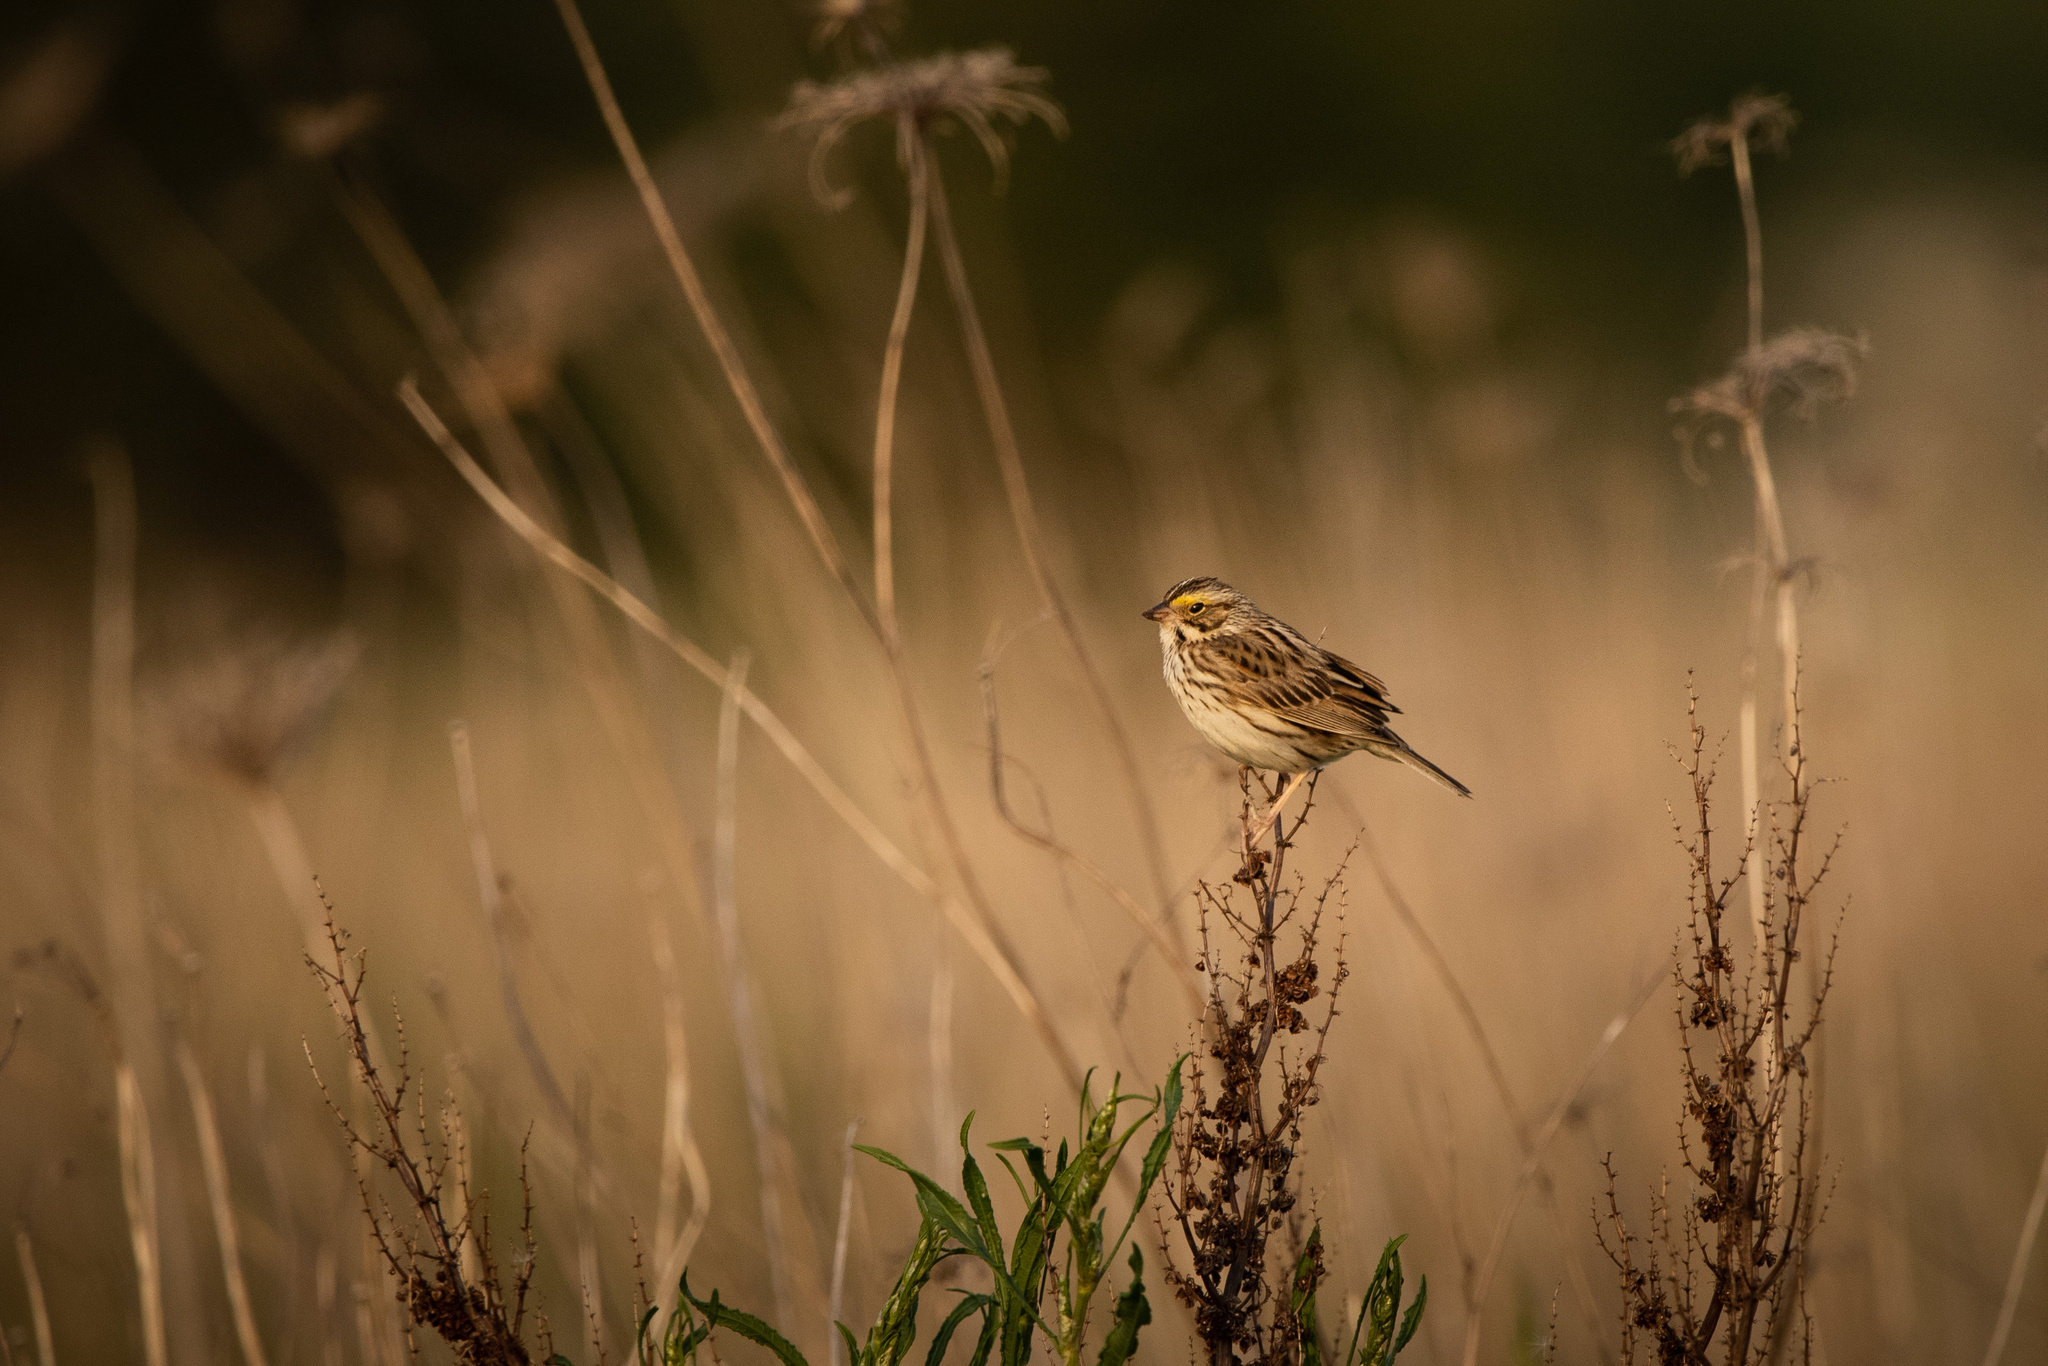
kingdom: Animalia
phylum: Chordata
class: Aves
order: Passeriformes
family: Passerellidae
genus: Passerculus
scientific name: Passerculus sandwichensis
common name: Savannah sparrow
